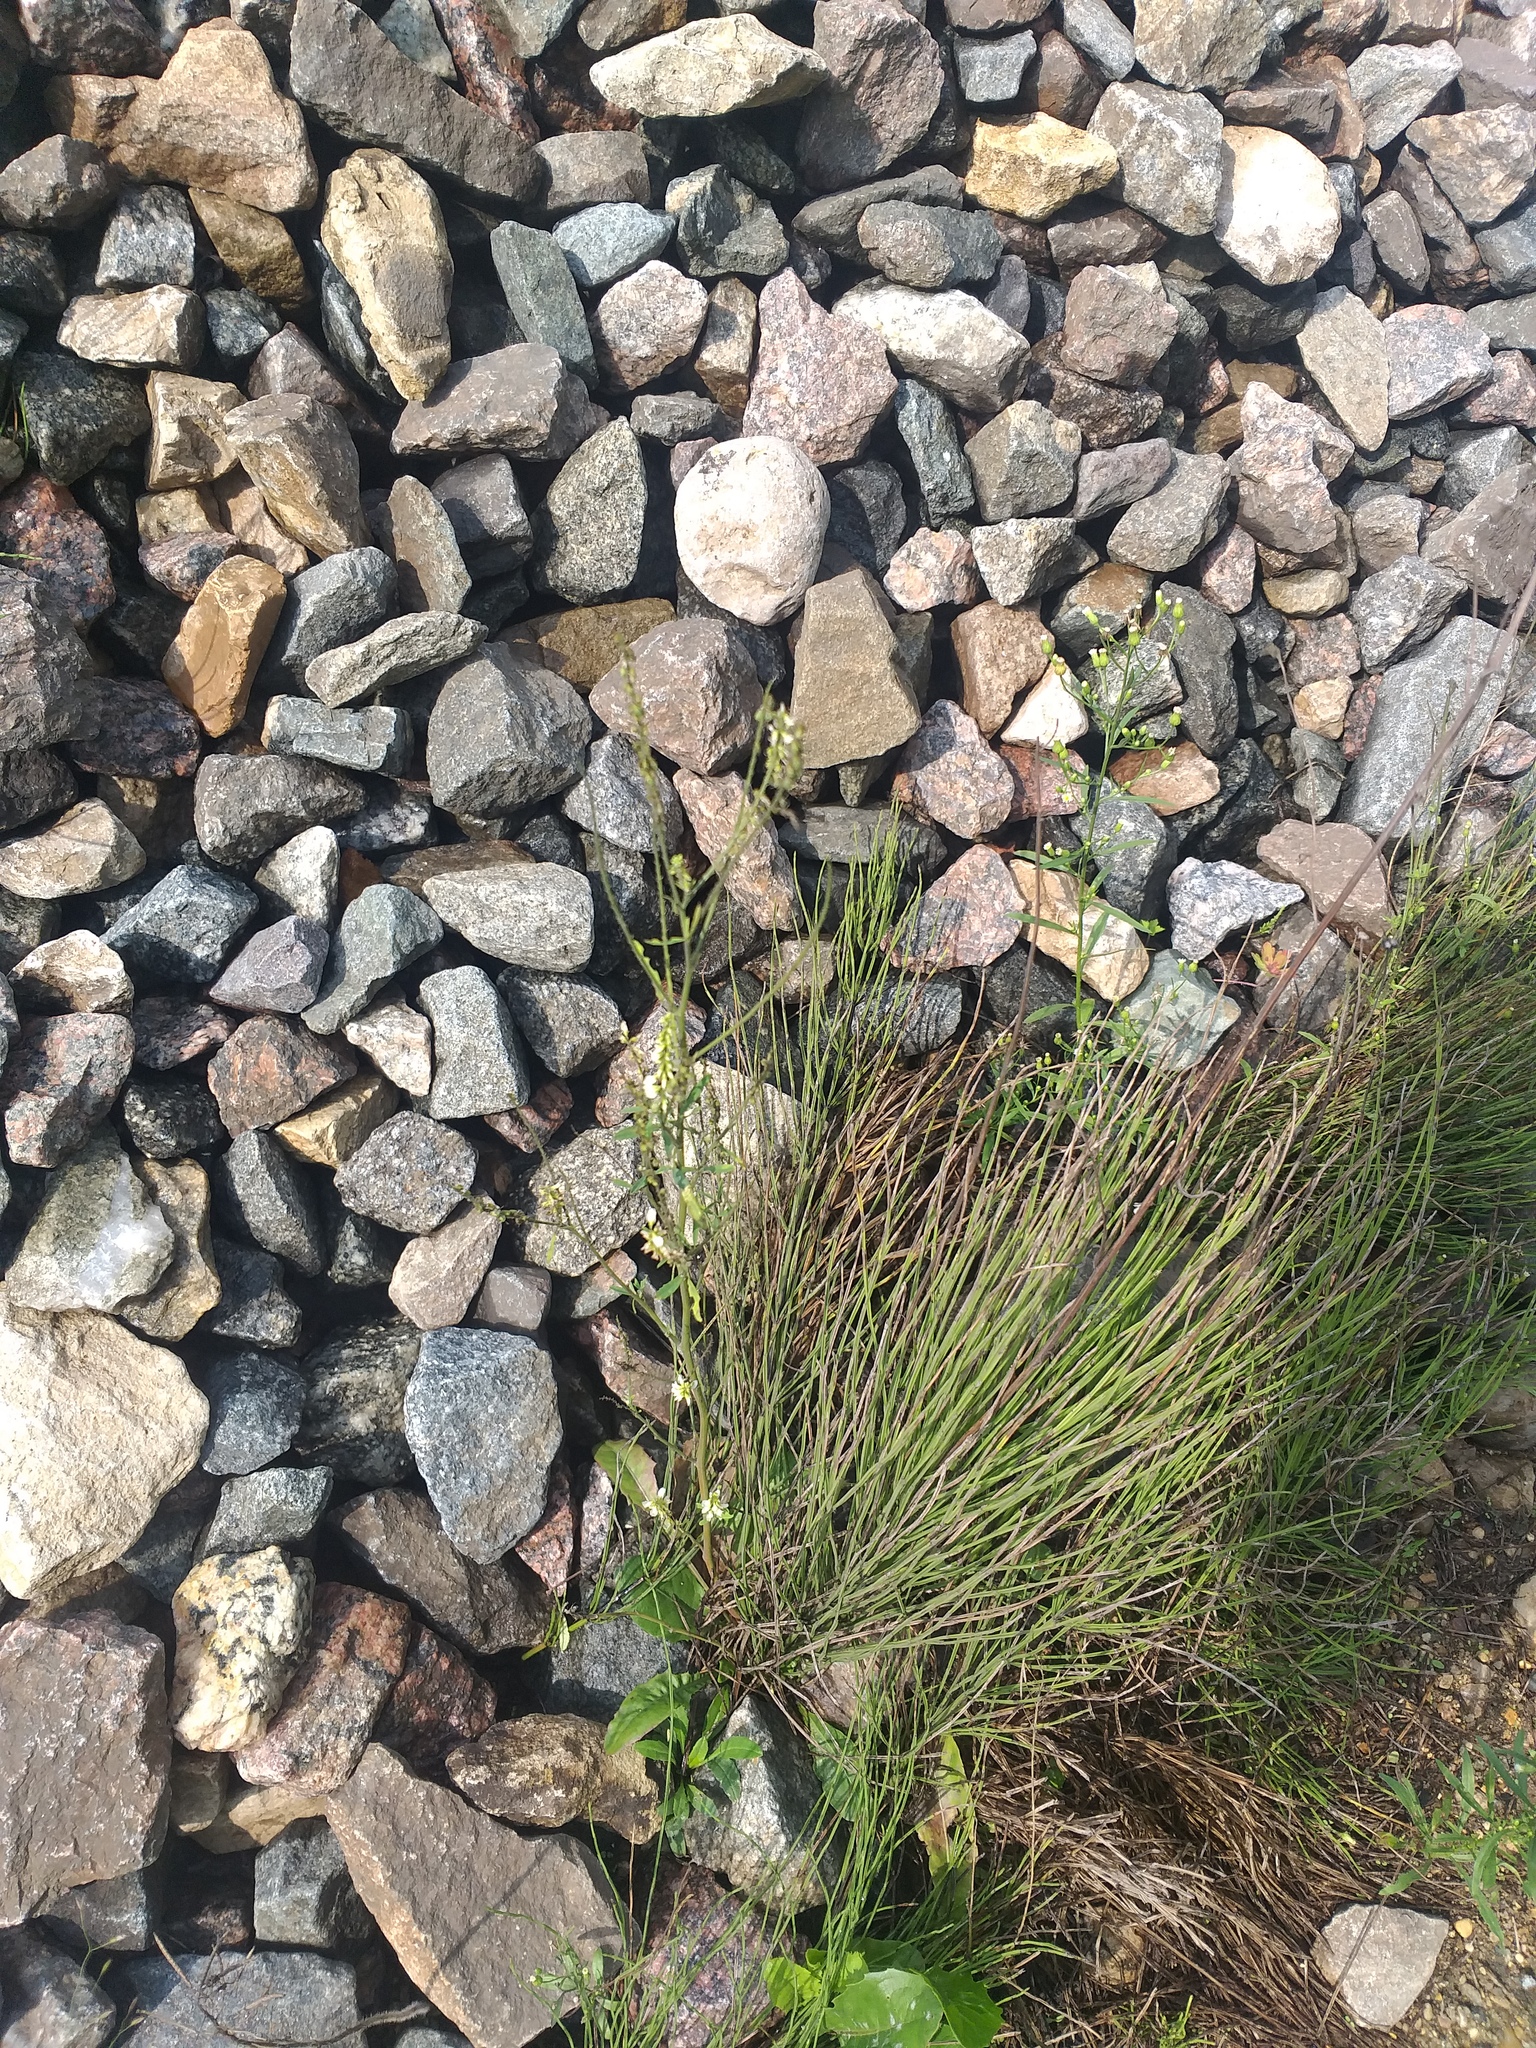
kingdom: Plantae
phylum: Tracheophyta
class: Magnoliopsida
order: Fabales
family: Fabaceae
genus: Melilotus
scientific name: Melilotus albus
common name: White melilot
